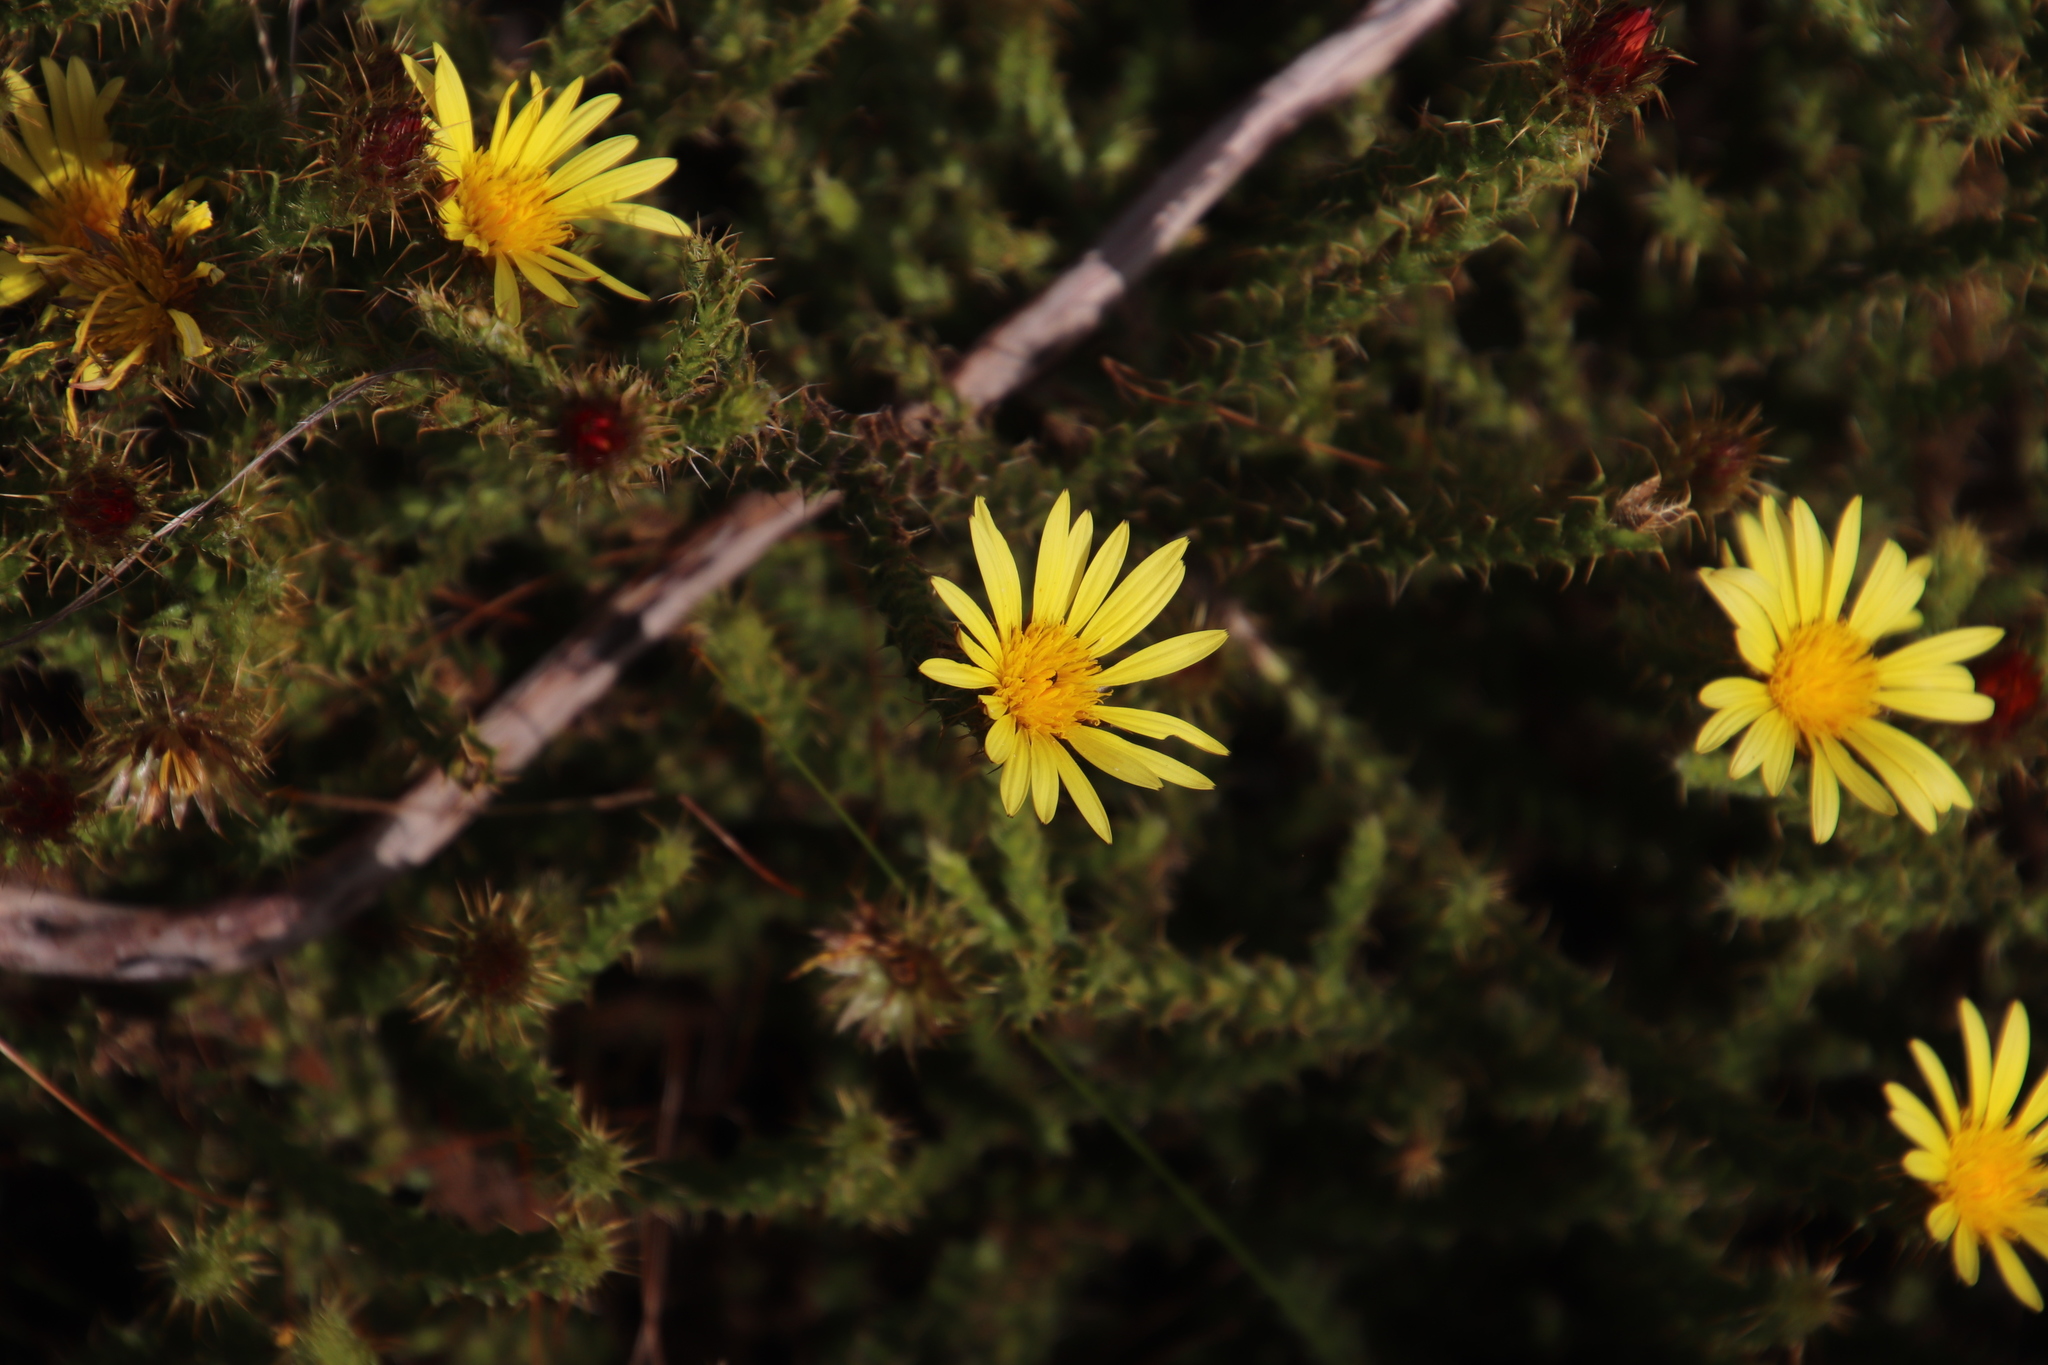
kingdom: Plantae
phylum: Tracheophyta
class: Magnoliopsida
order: Asterales
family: Asteraceae
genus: Cullumia
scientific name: Cullumia reticulata
